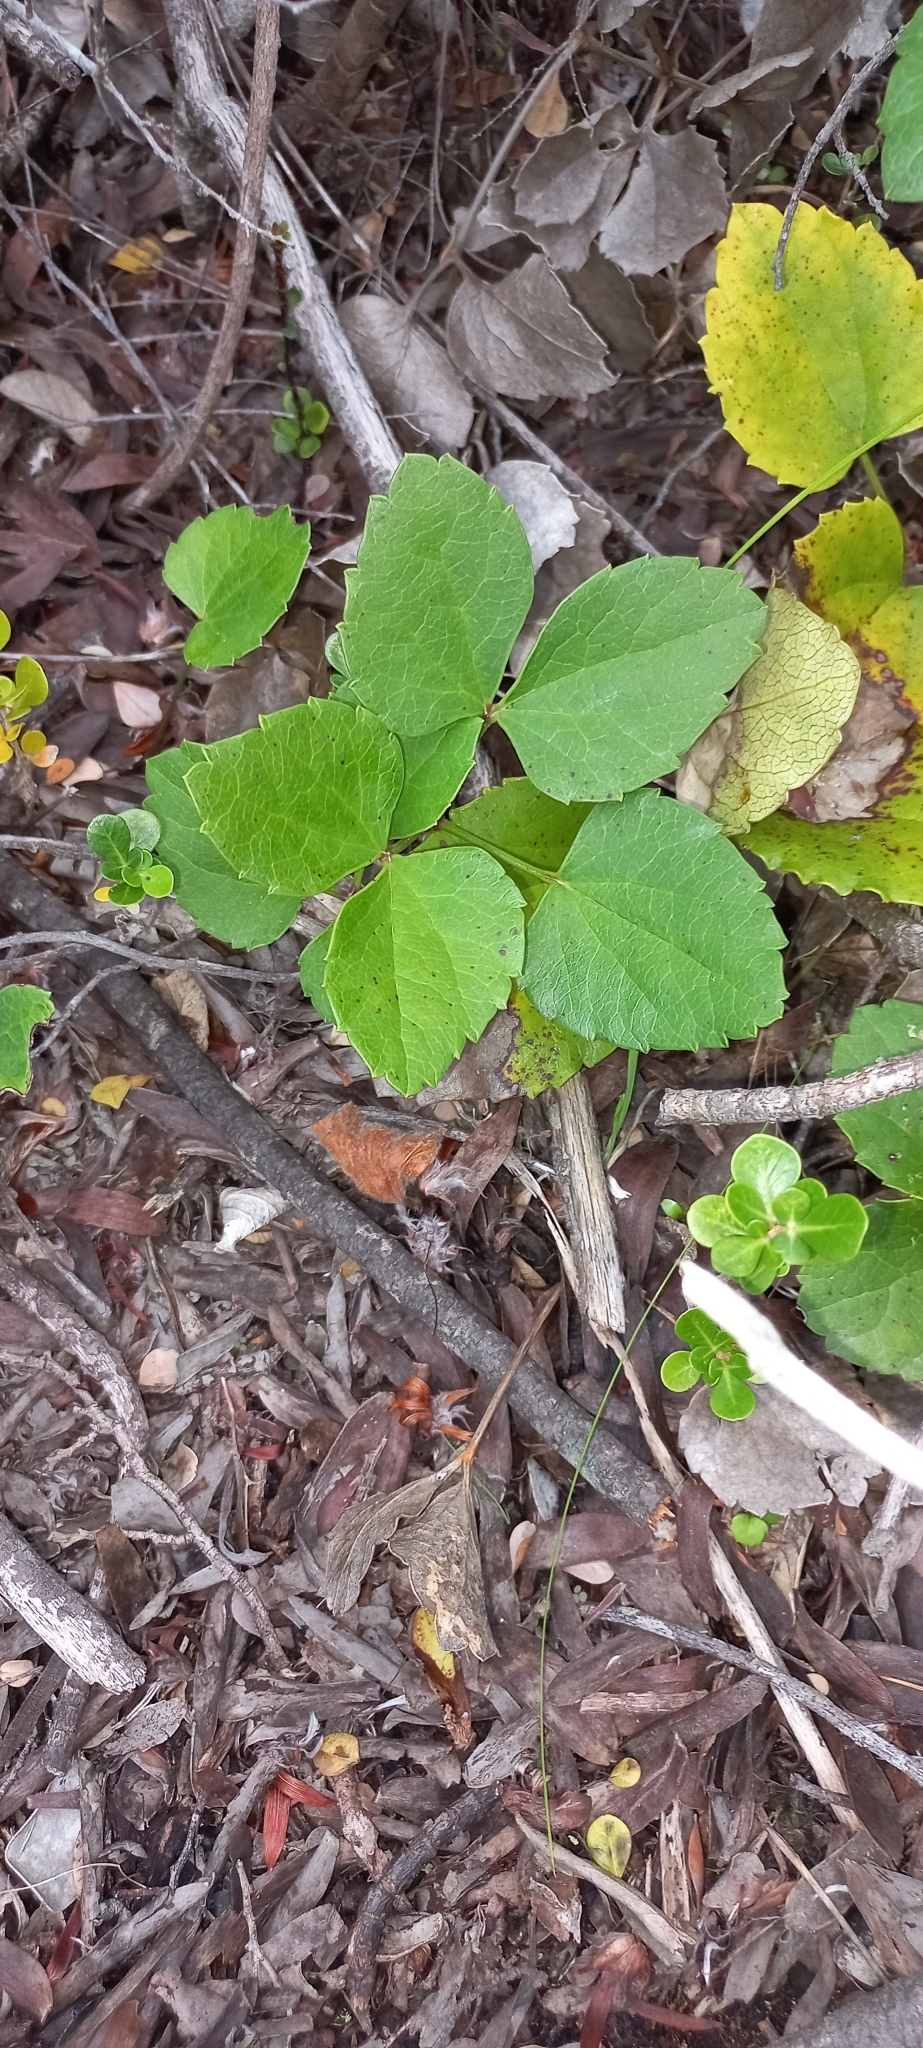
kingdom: Plantae
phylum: Tracheophyta
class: Magnoliopsida
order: Ranunculales
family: Ranunculaceae
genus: Knowltonia
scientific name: Knowltonia vesicatoria
